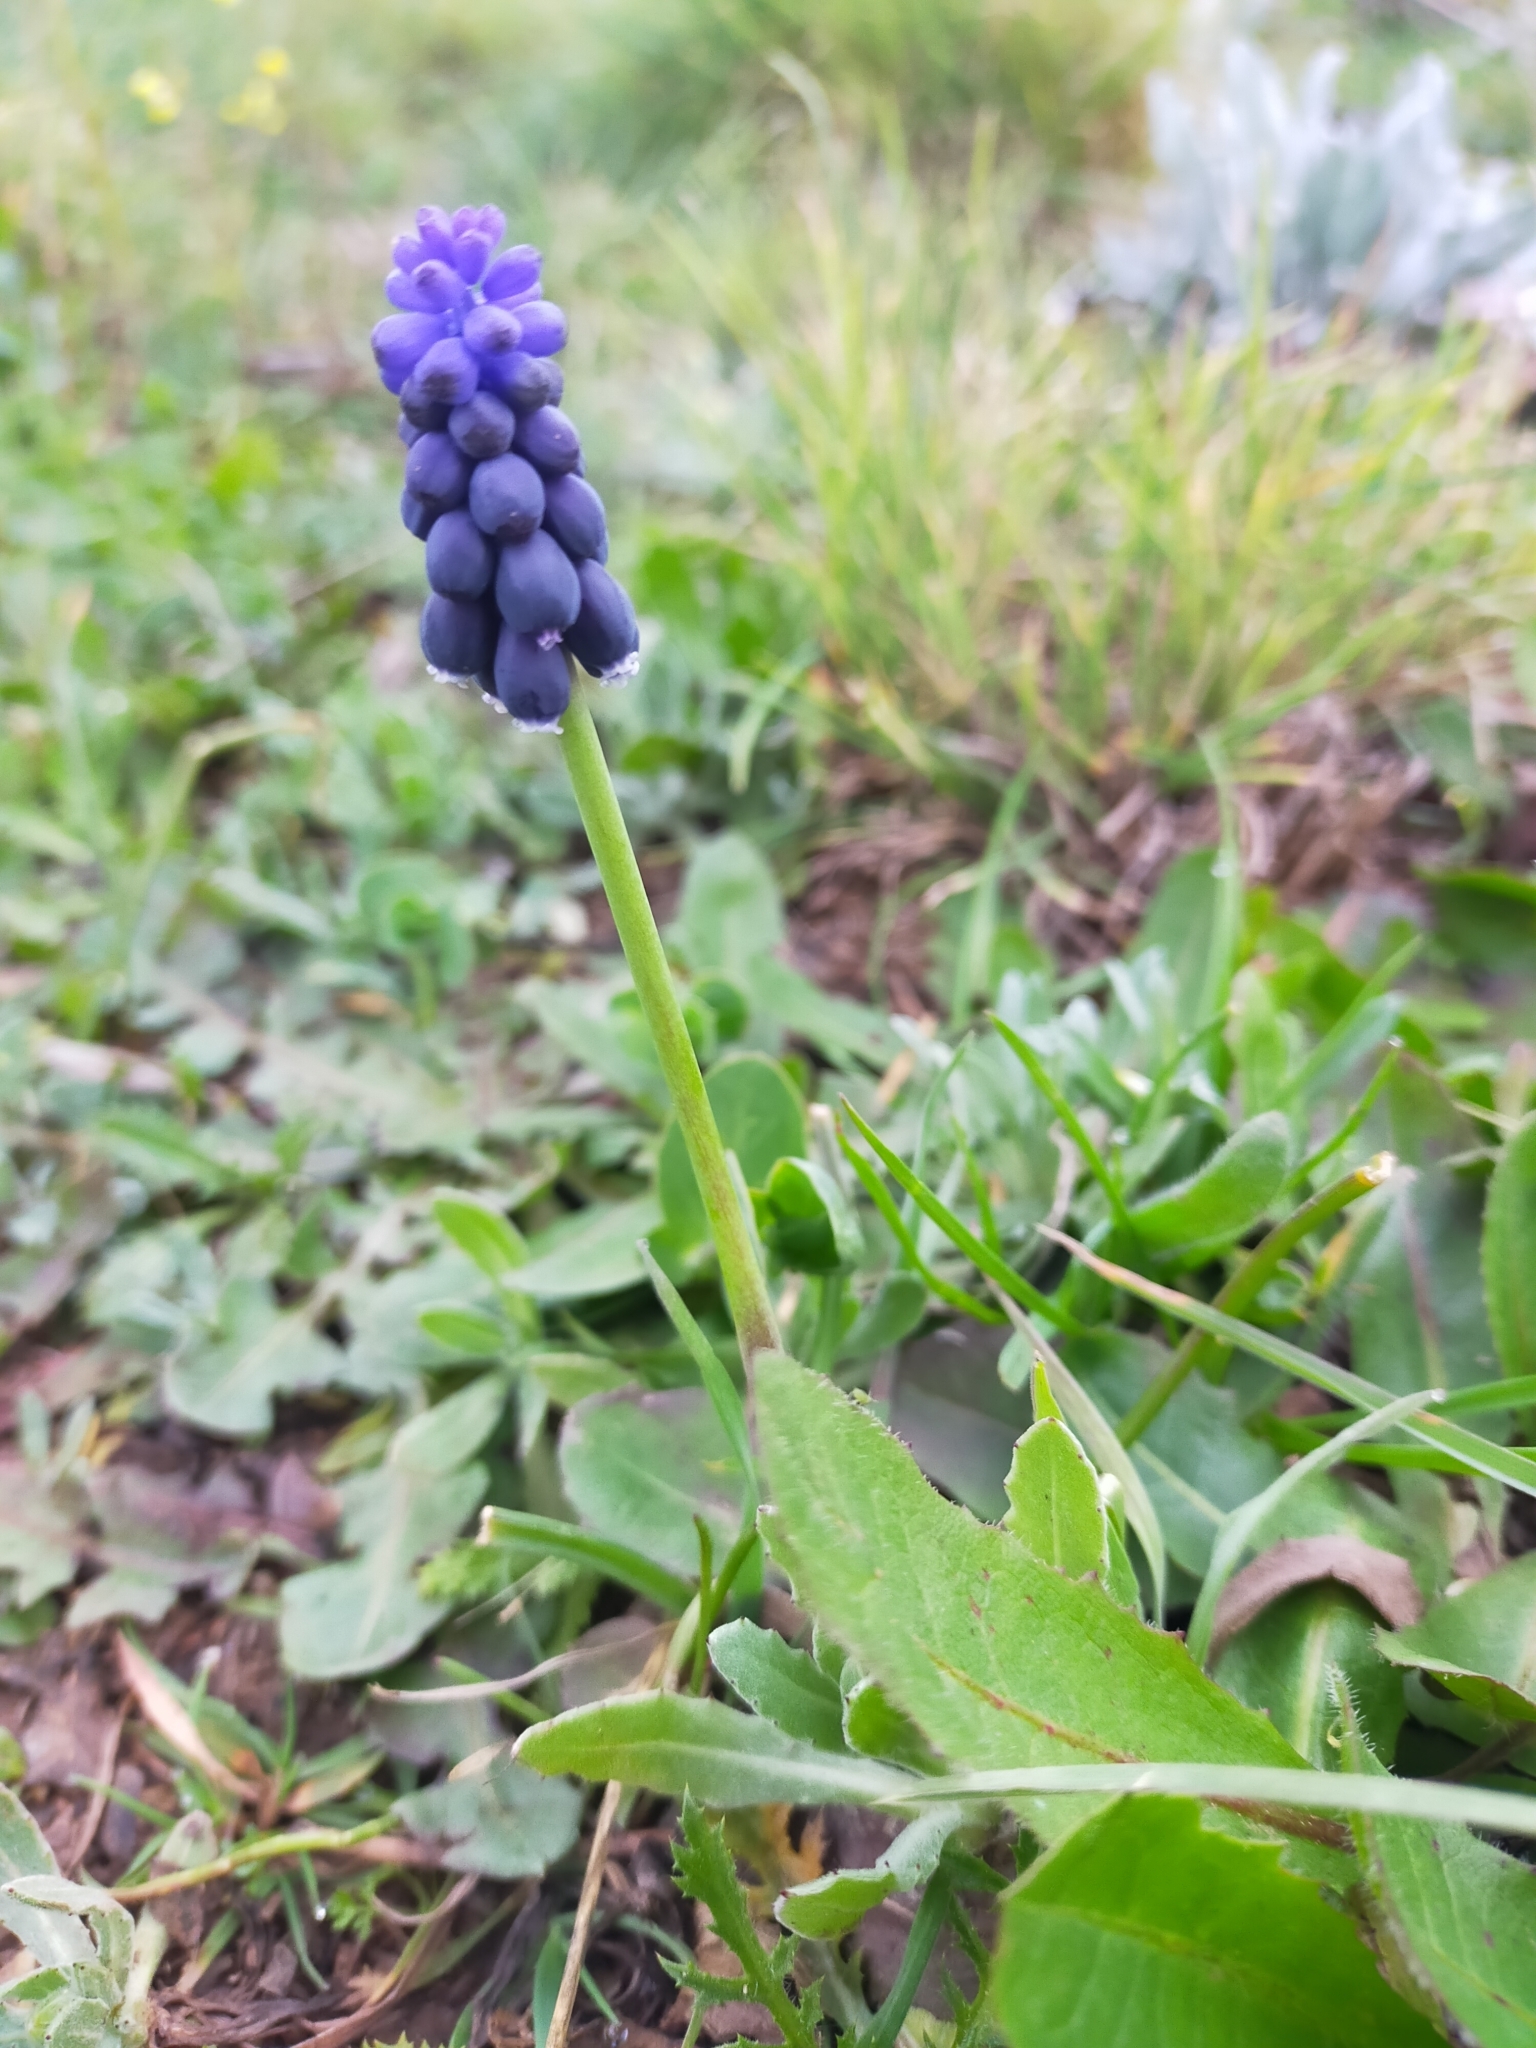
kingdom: Plantae
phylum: Tracheophyta
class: Liliopsida
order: Asparagales
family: Asparagaceae
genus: Muscari
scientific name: Muscari neglectum
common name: Grape-hyacinth
